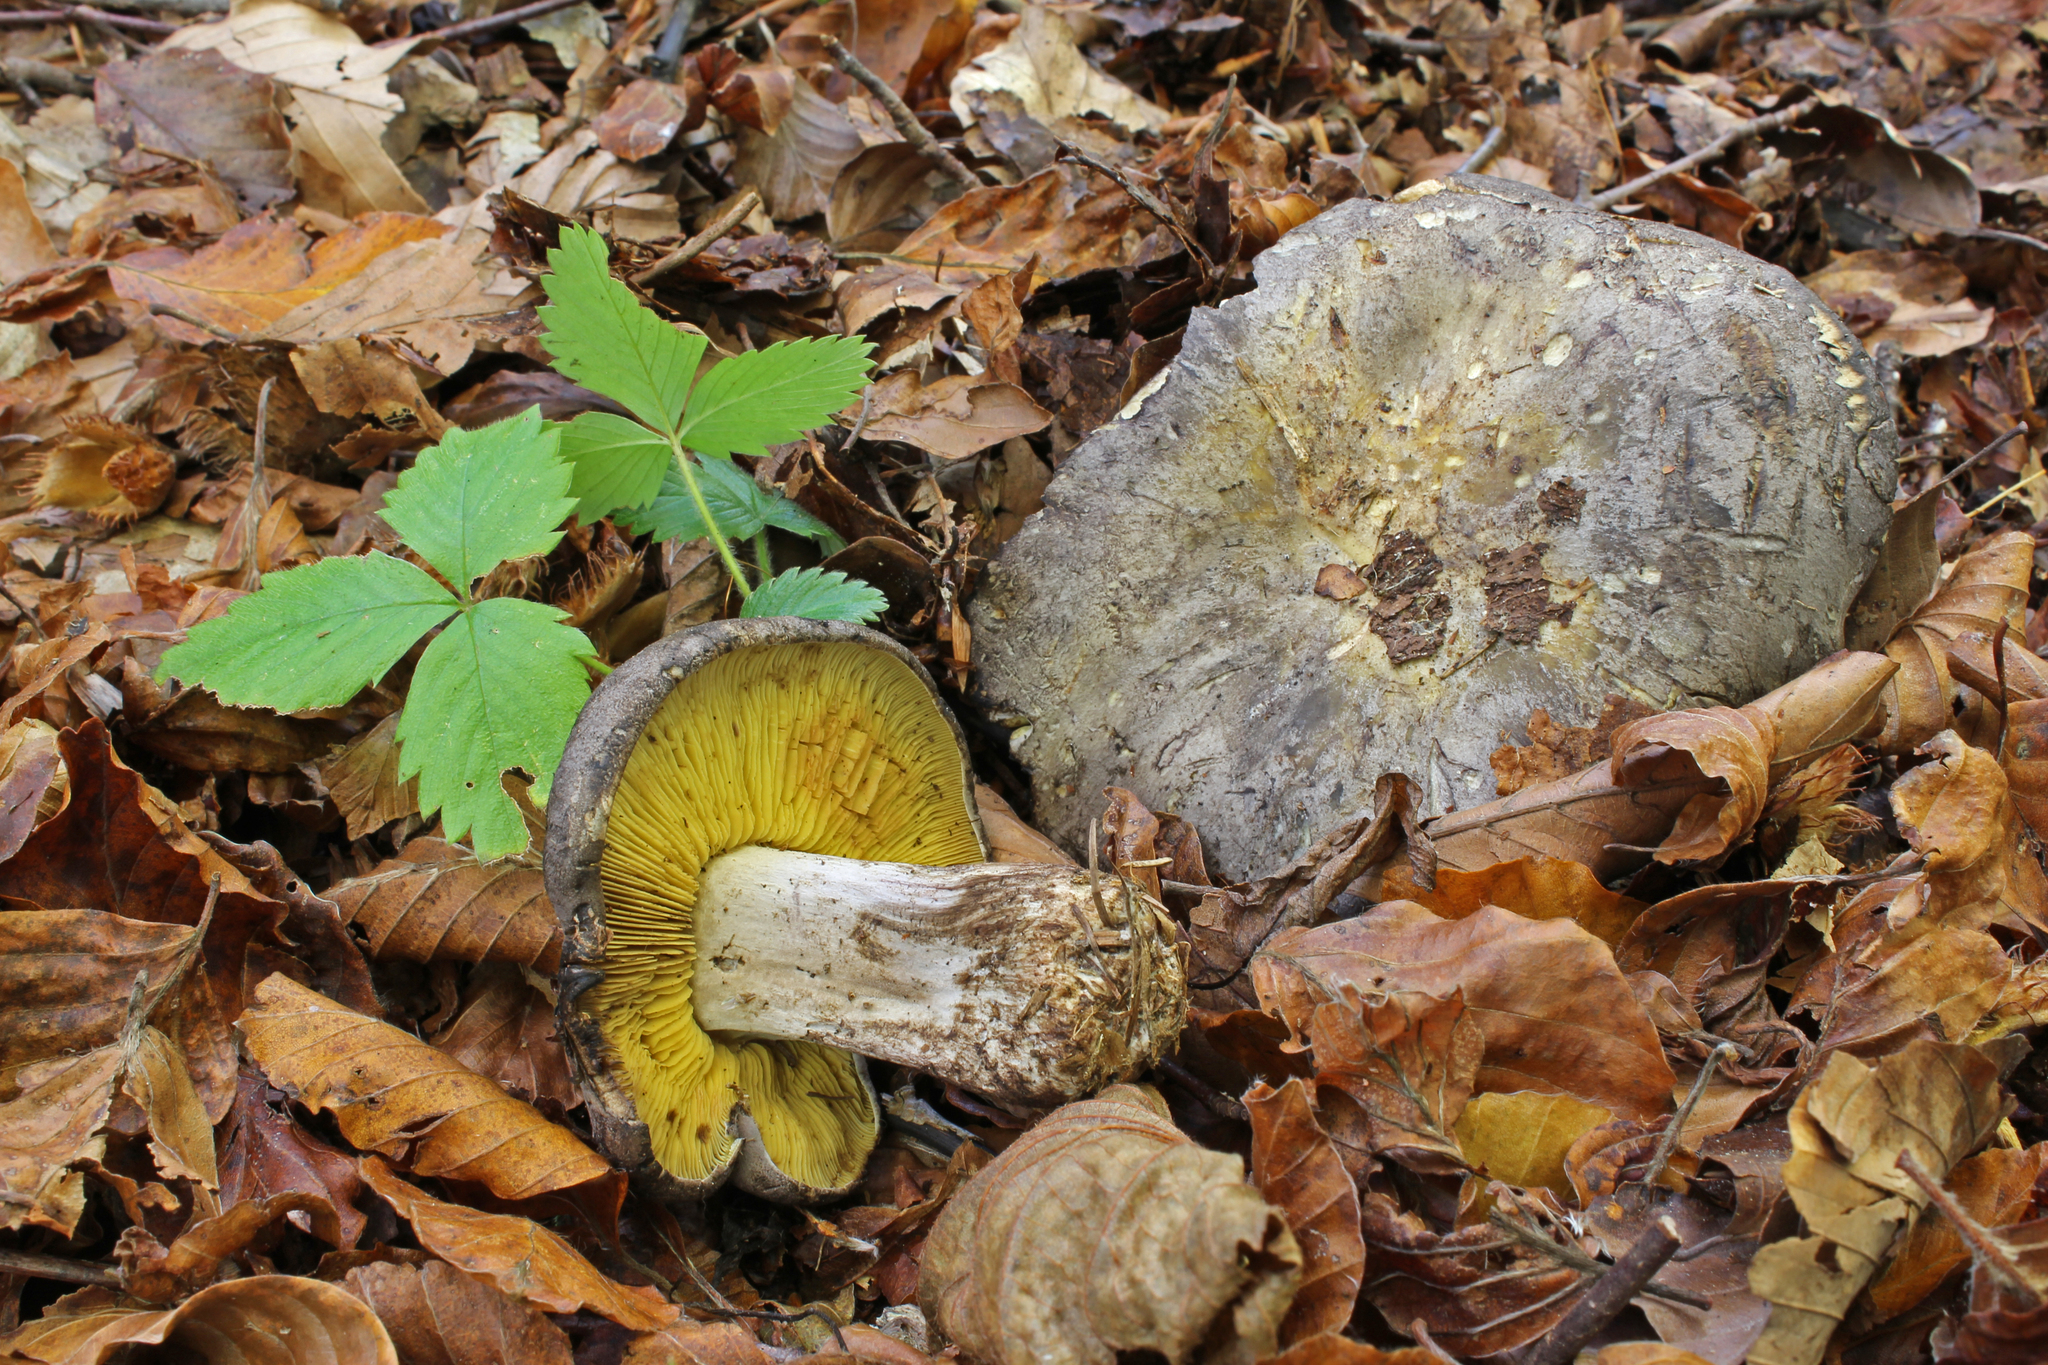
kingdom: Fungi
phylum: Basidiomycota
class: Agaricomycetes
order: Agaricales
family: Lyophyllaceae
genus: Calocybe
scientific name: Calocybe favrei
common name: Gilded domecap
